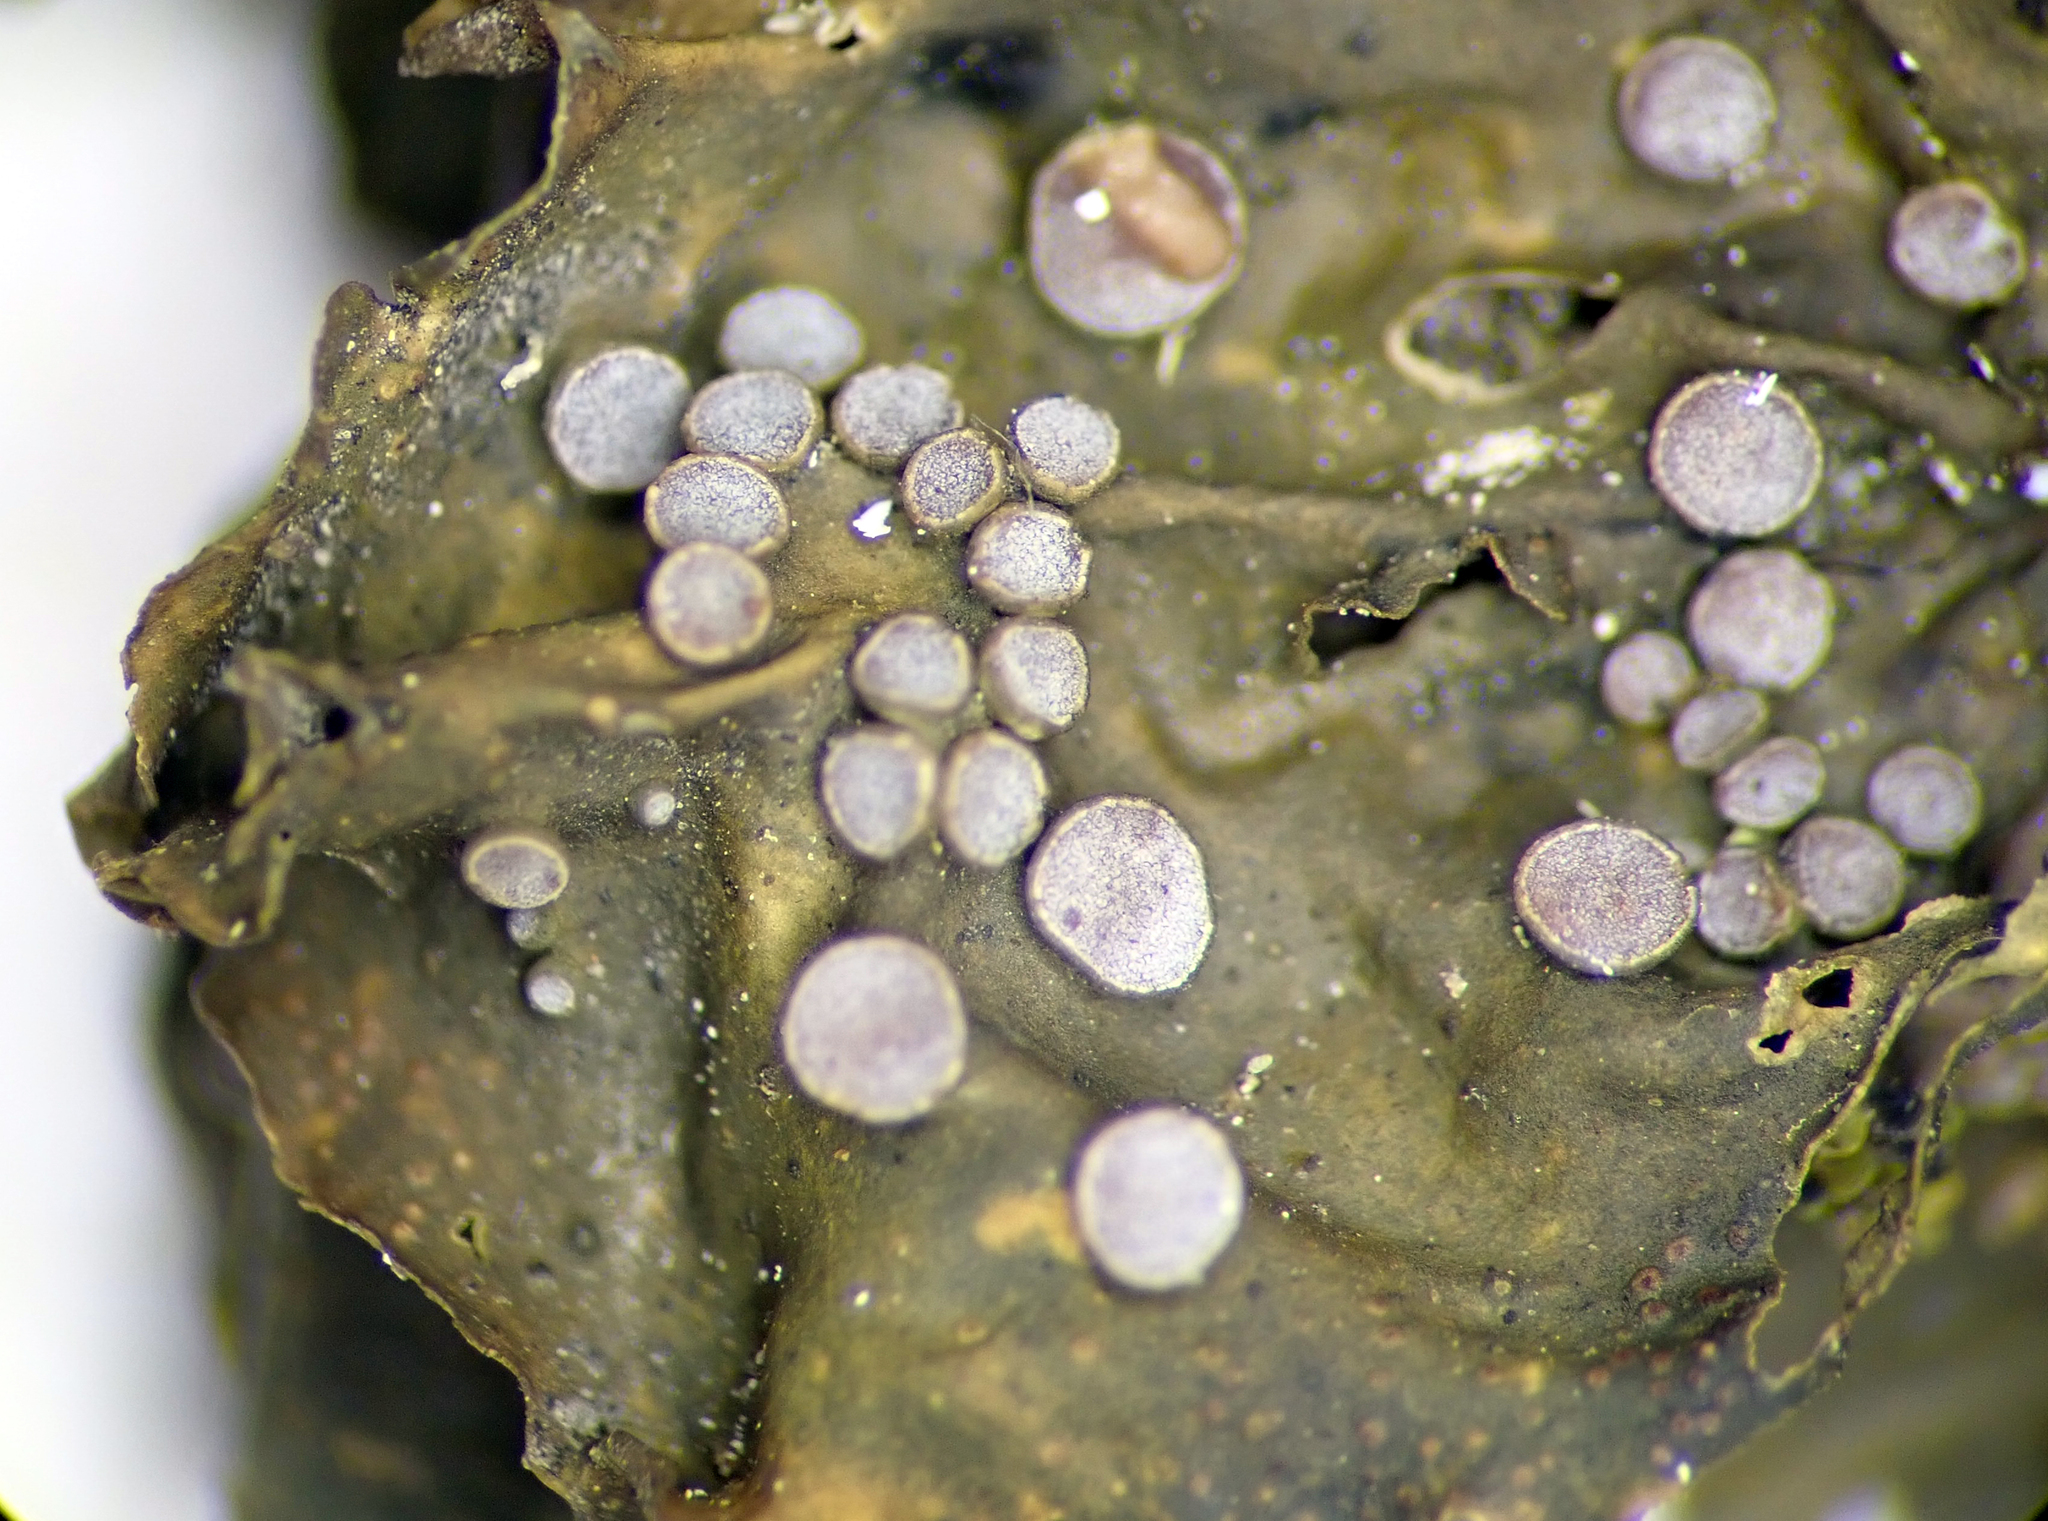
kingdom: Fungi
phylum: Ascomycota
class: Lecanoromycetes
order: Peltigerales
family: Collemataceae
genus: Collema
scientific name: Collema leucocarpum
